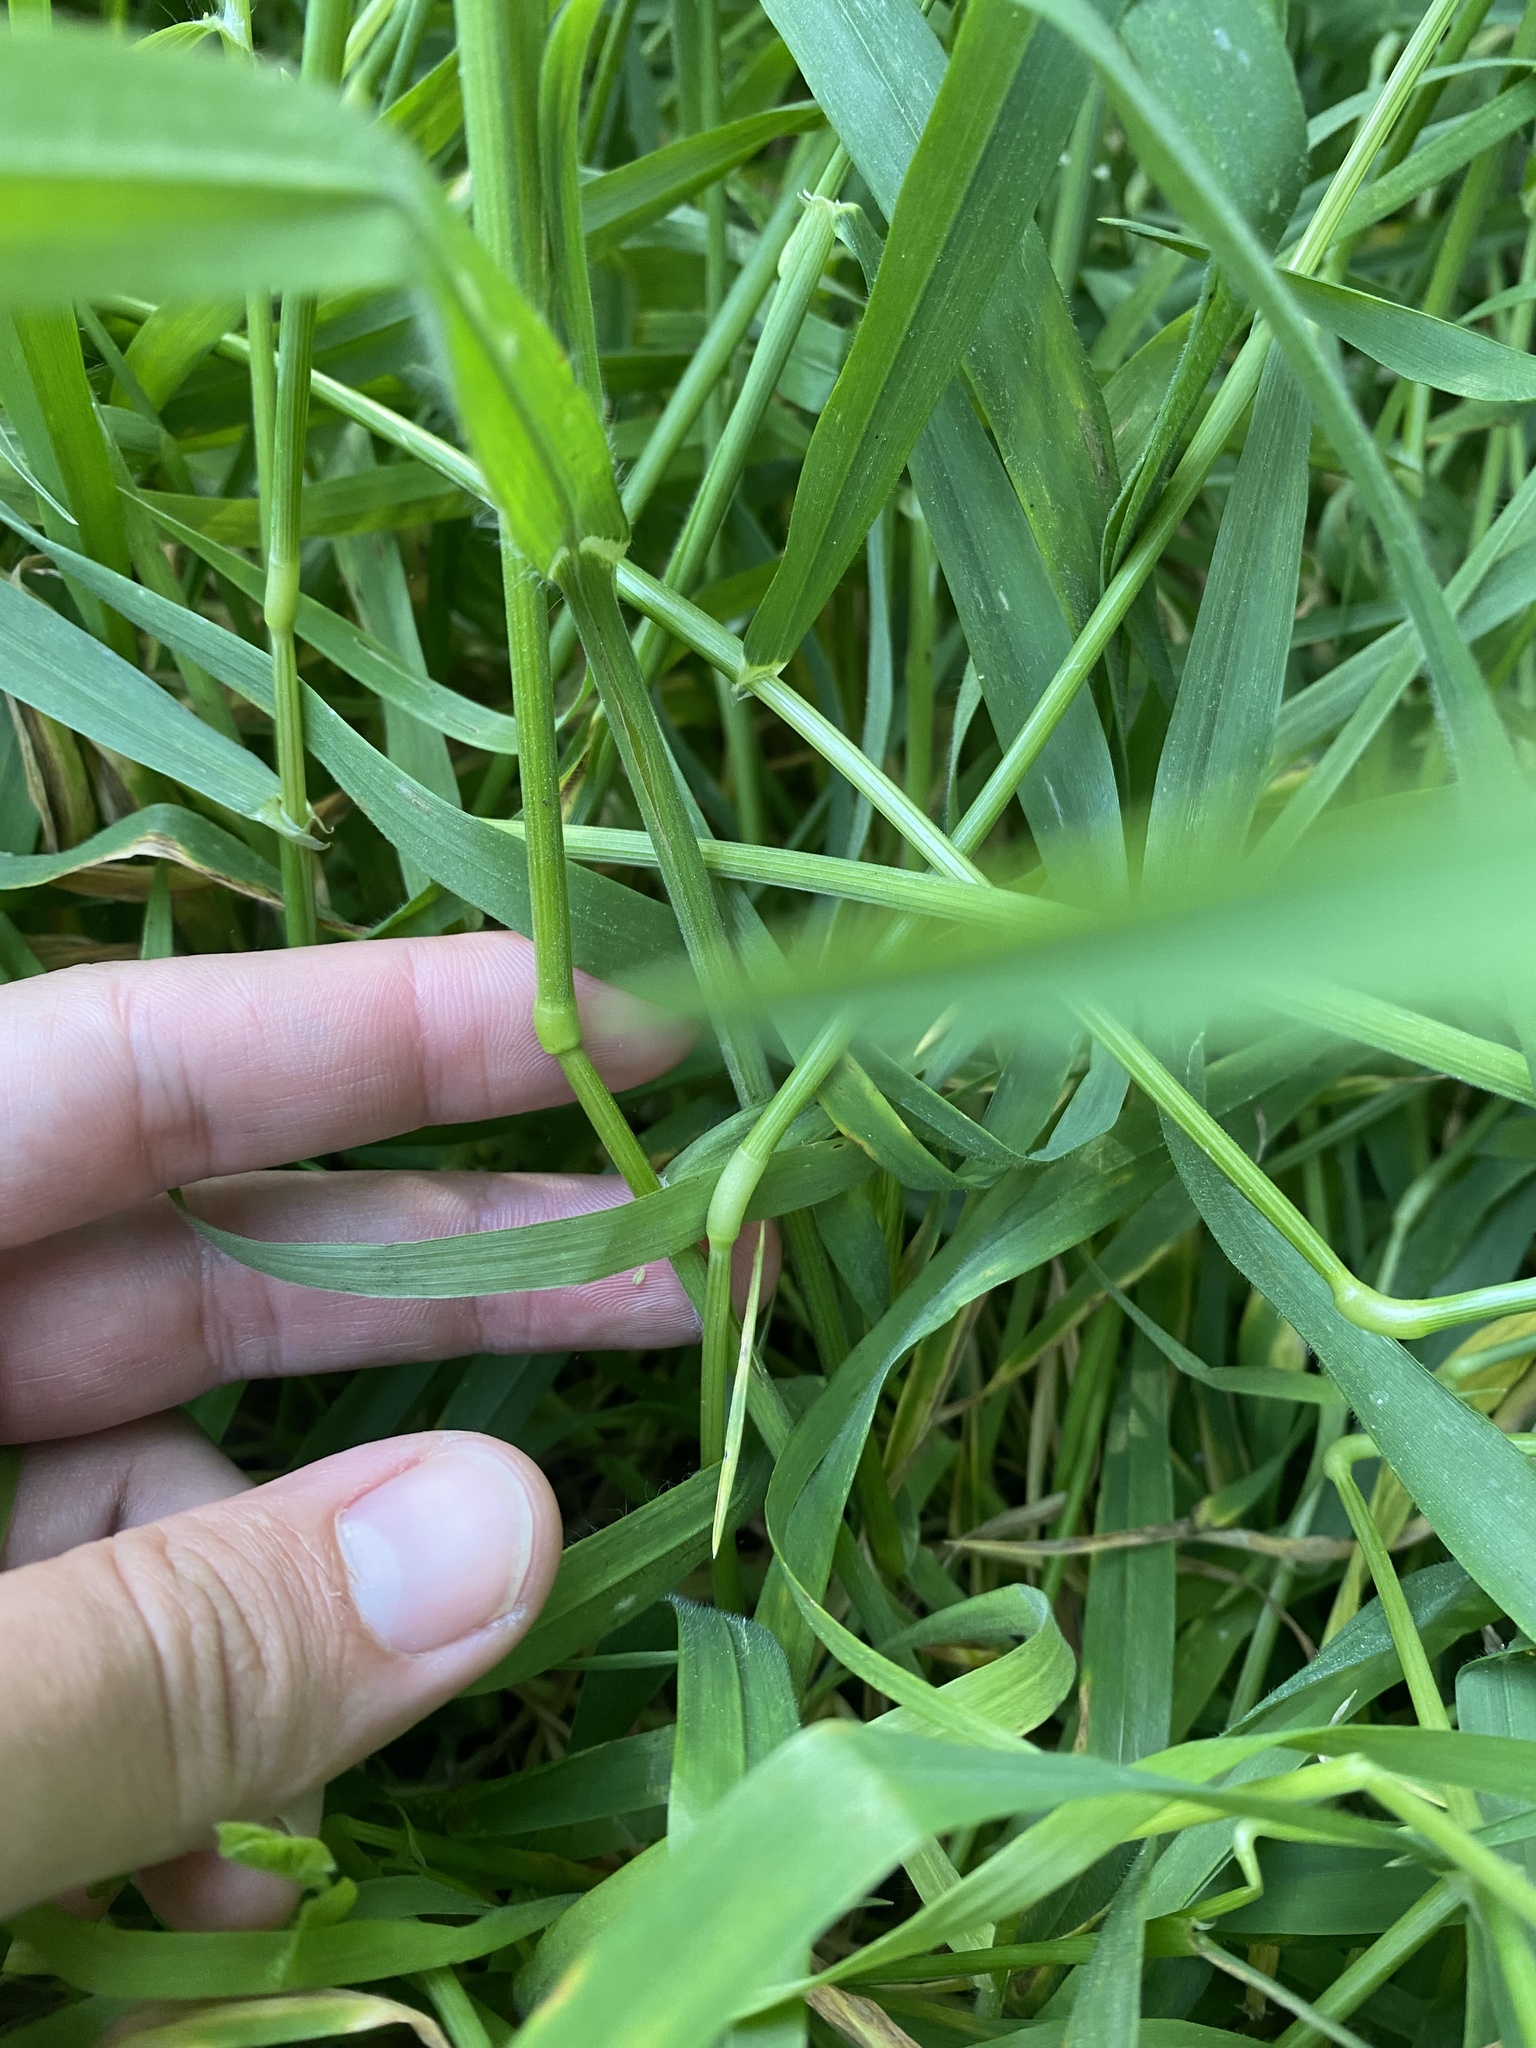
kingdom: Plantae
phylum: Tracheophyta
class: Liliopsida
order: Poales
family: Poaceae
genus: Bromus
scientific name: Bromus tectorum
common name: Cheatgrass
